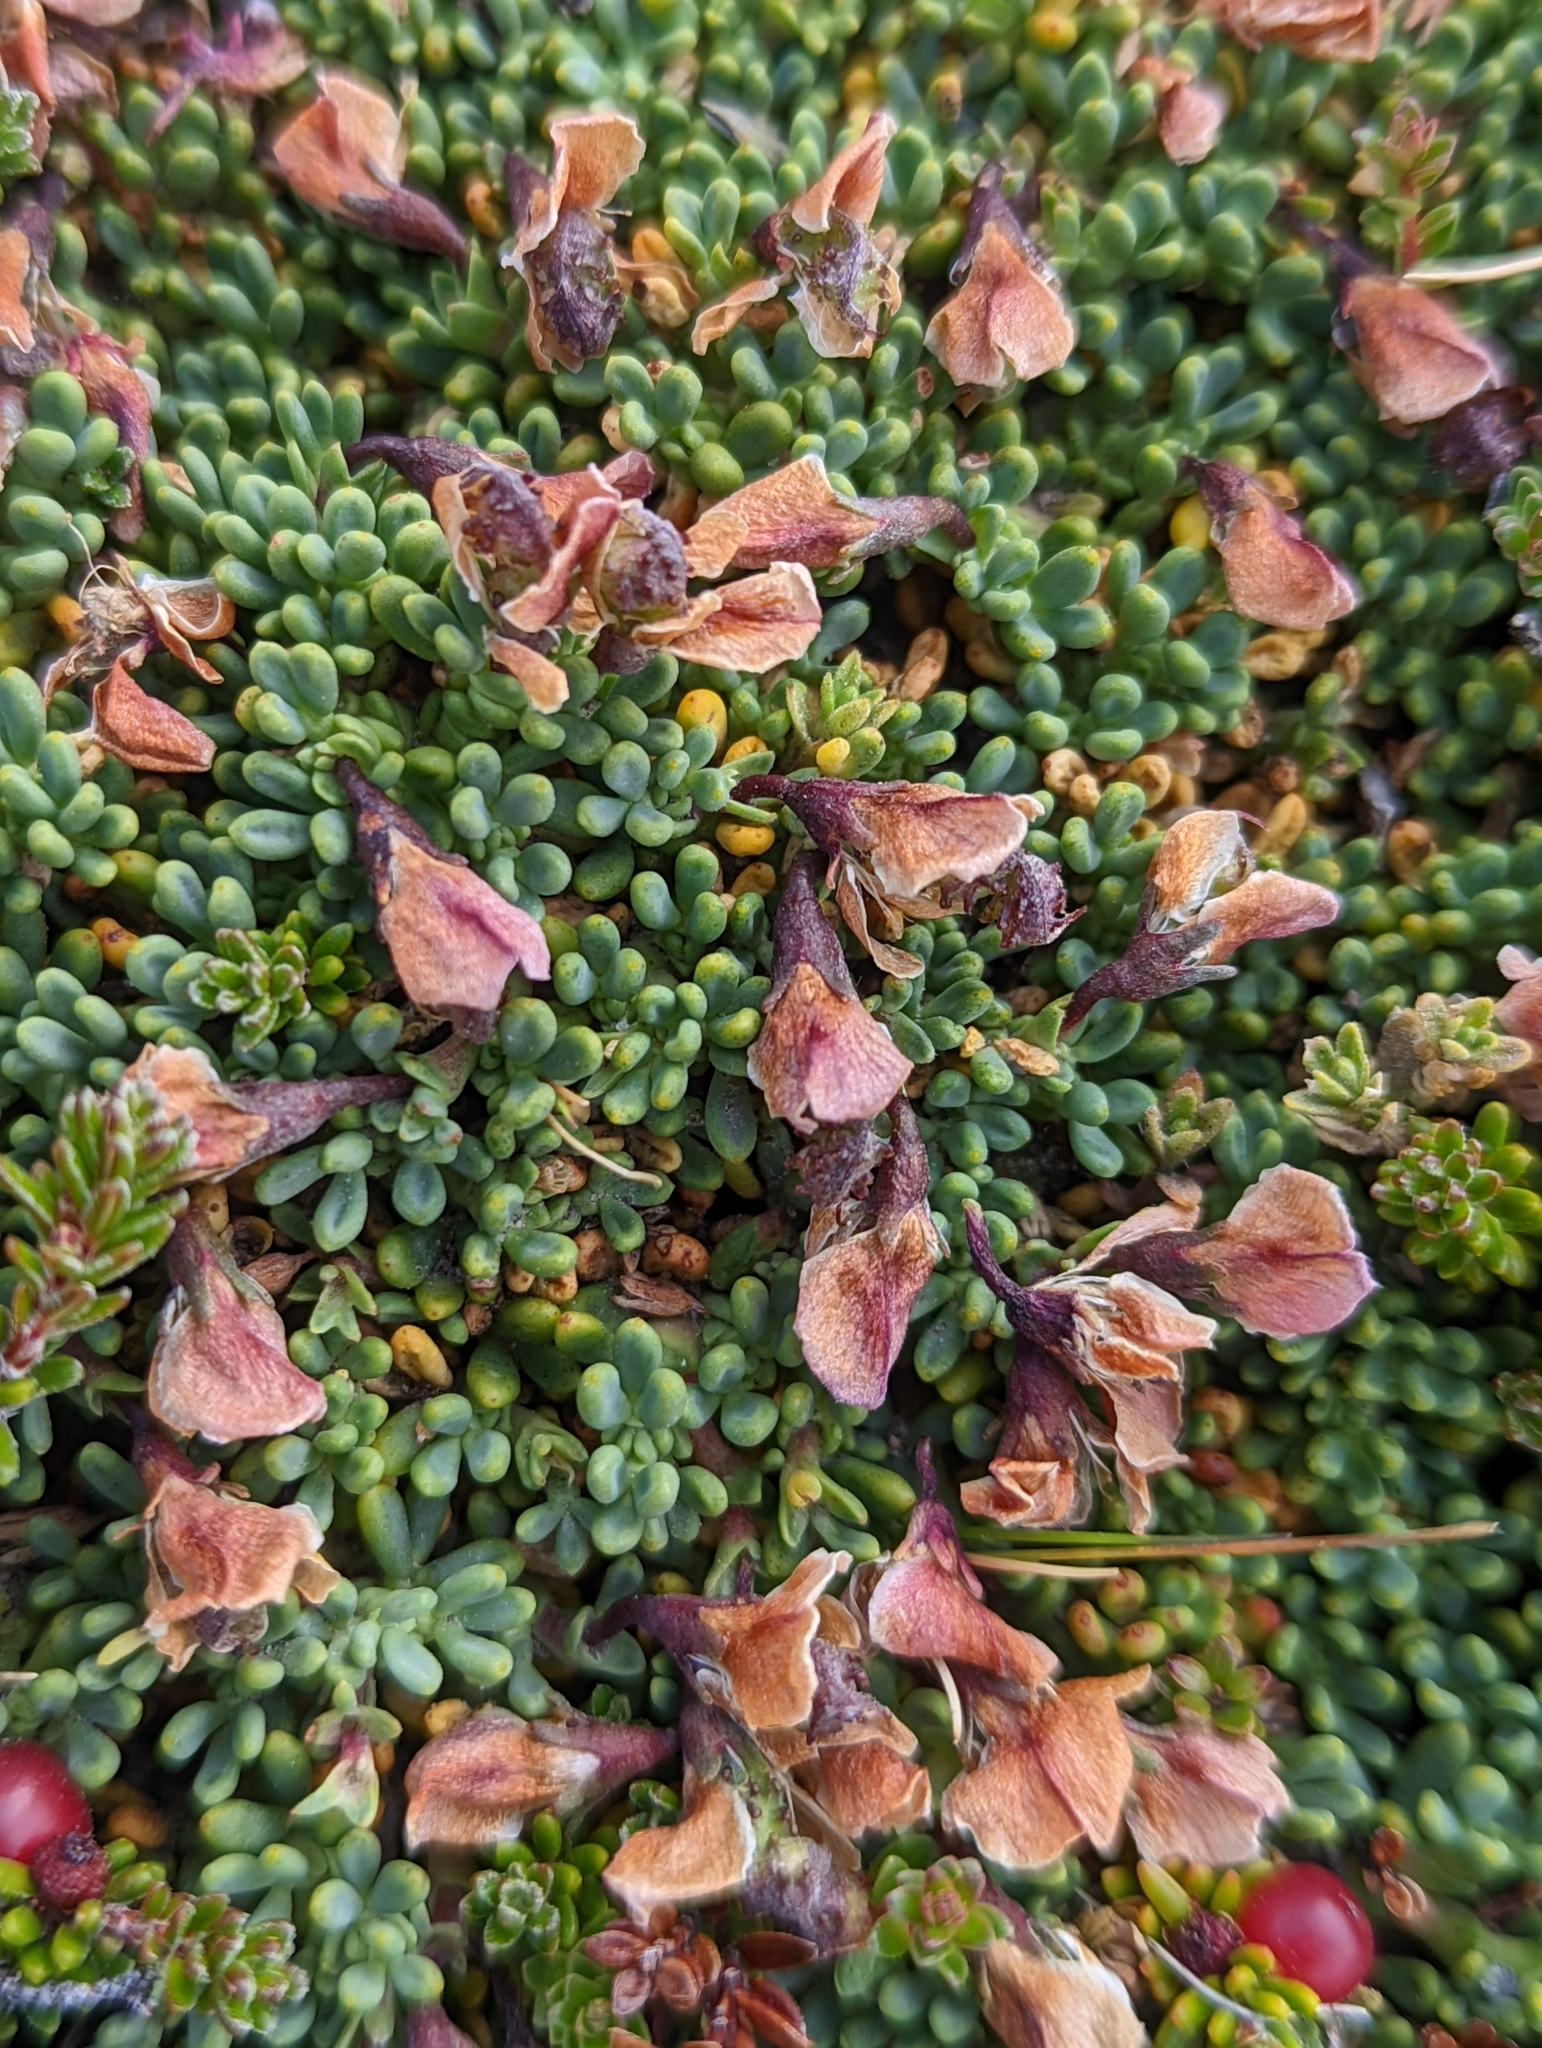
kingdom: Plantae
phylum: Tracheophyta
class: Magnoliopsida
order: Fabales
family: Fabaceae
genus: Adesmia
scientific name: Adesmia salicornioides
